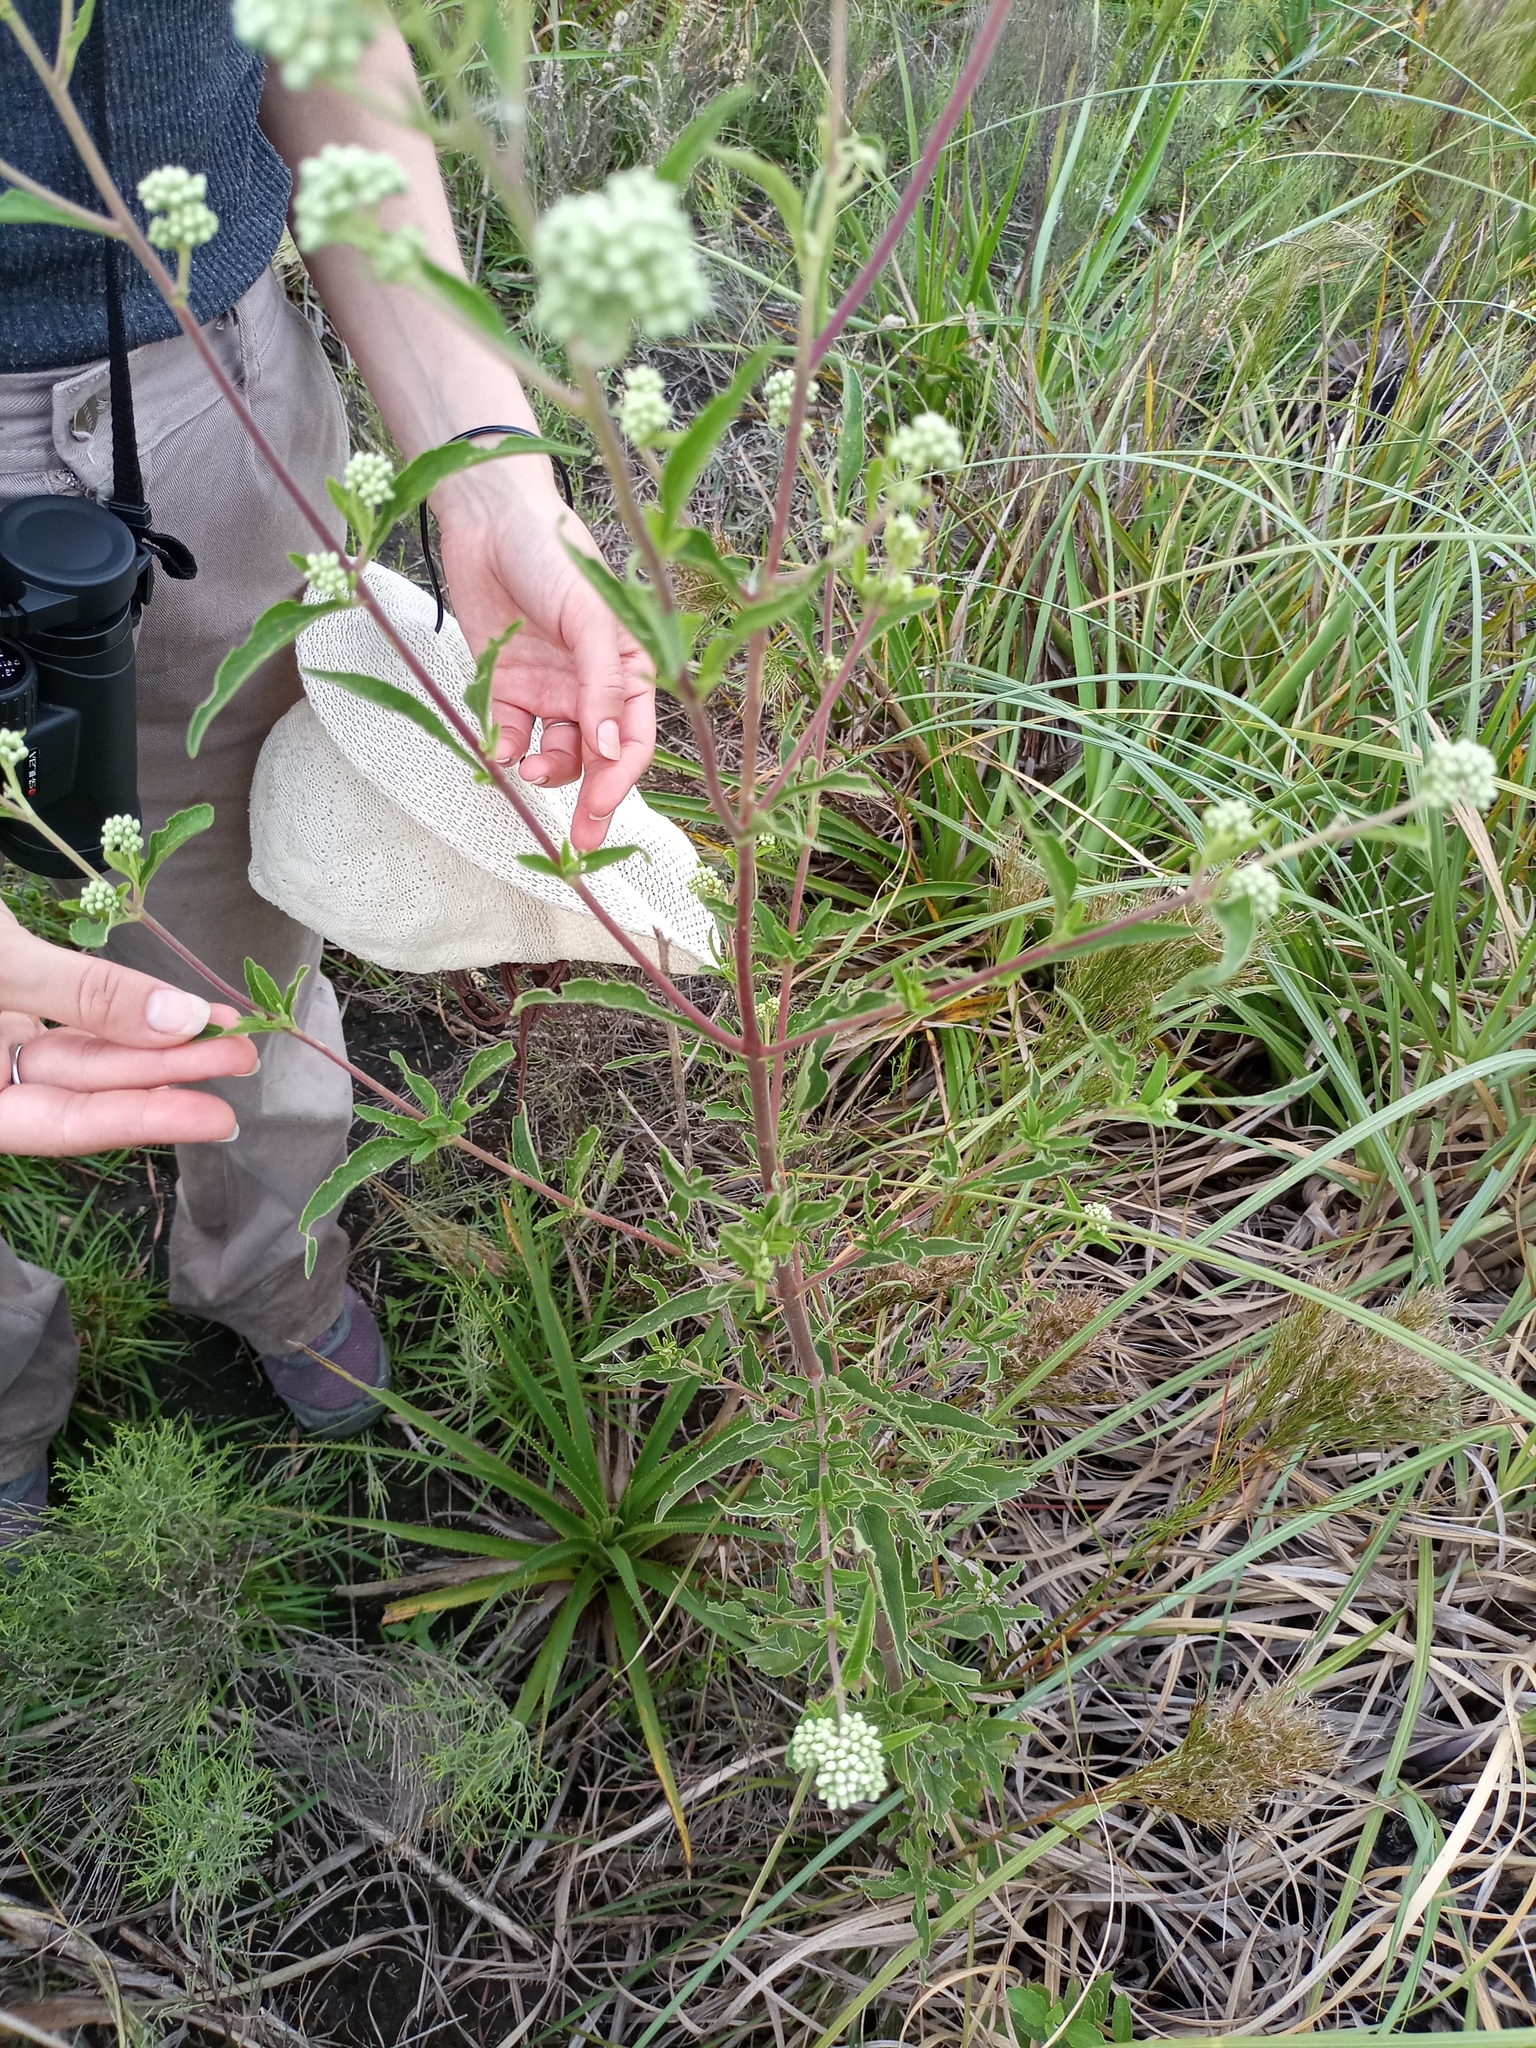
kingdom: Plantae
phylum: Tracheophyta
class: Magnoliopsida
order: Asterales
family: Asteraceae
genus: Austroeupatorium
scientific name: Austroeupatorium inulifolium
